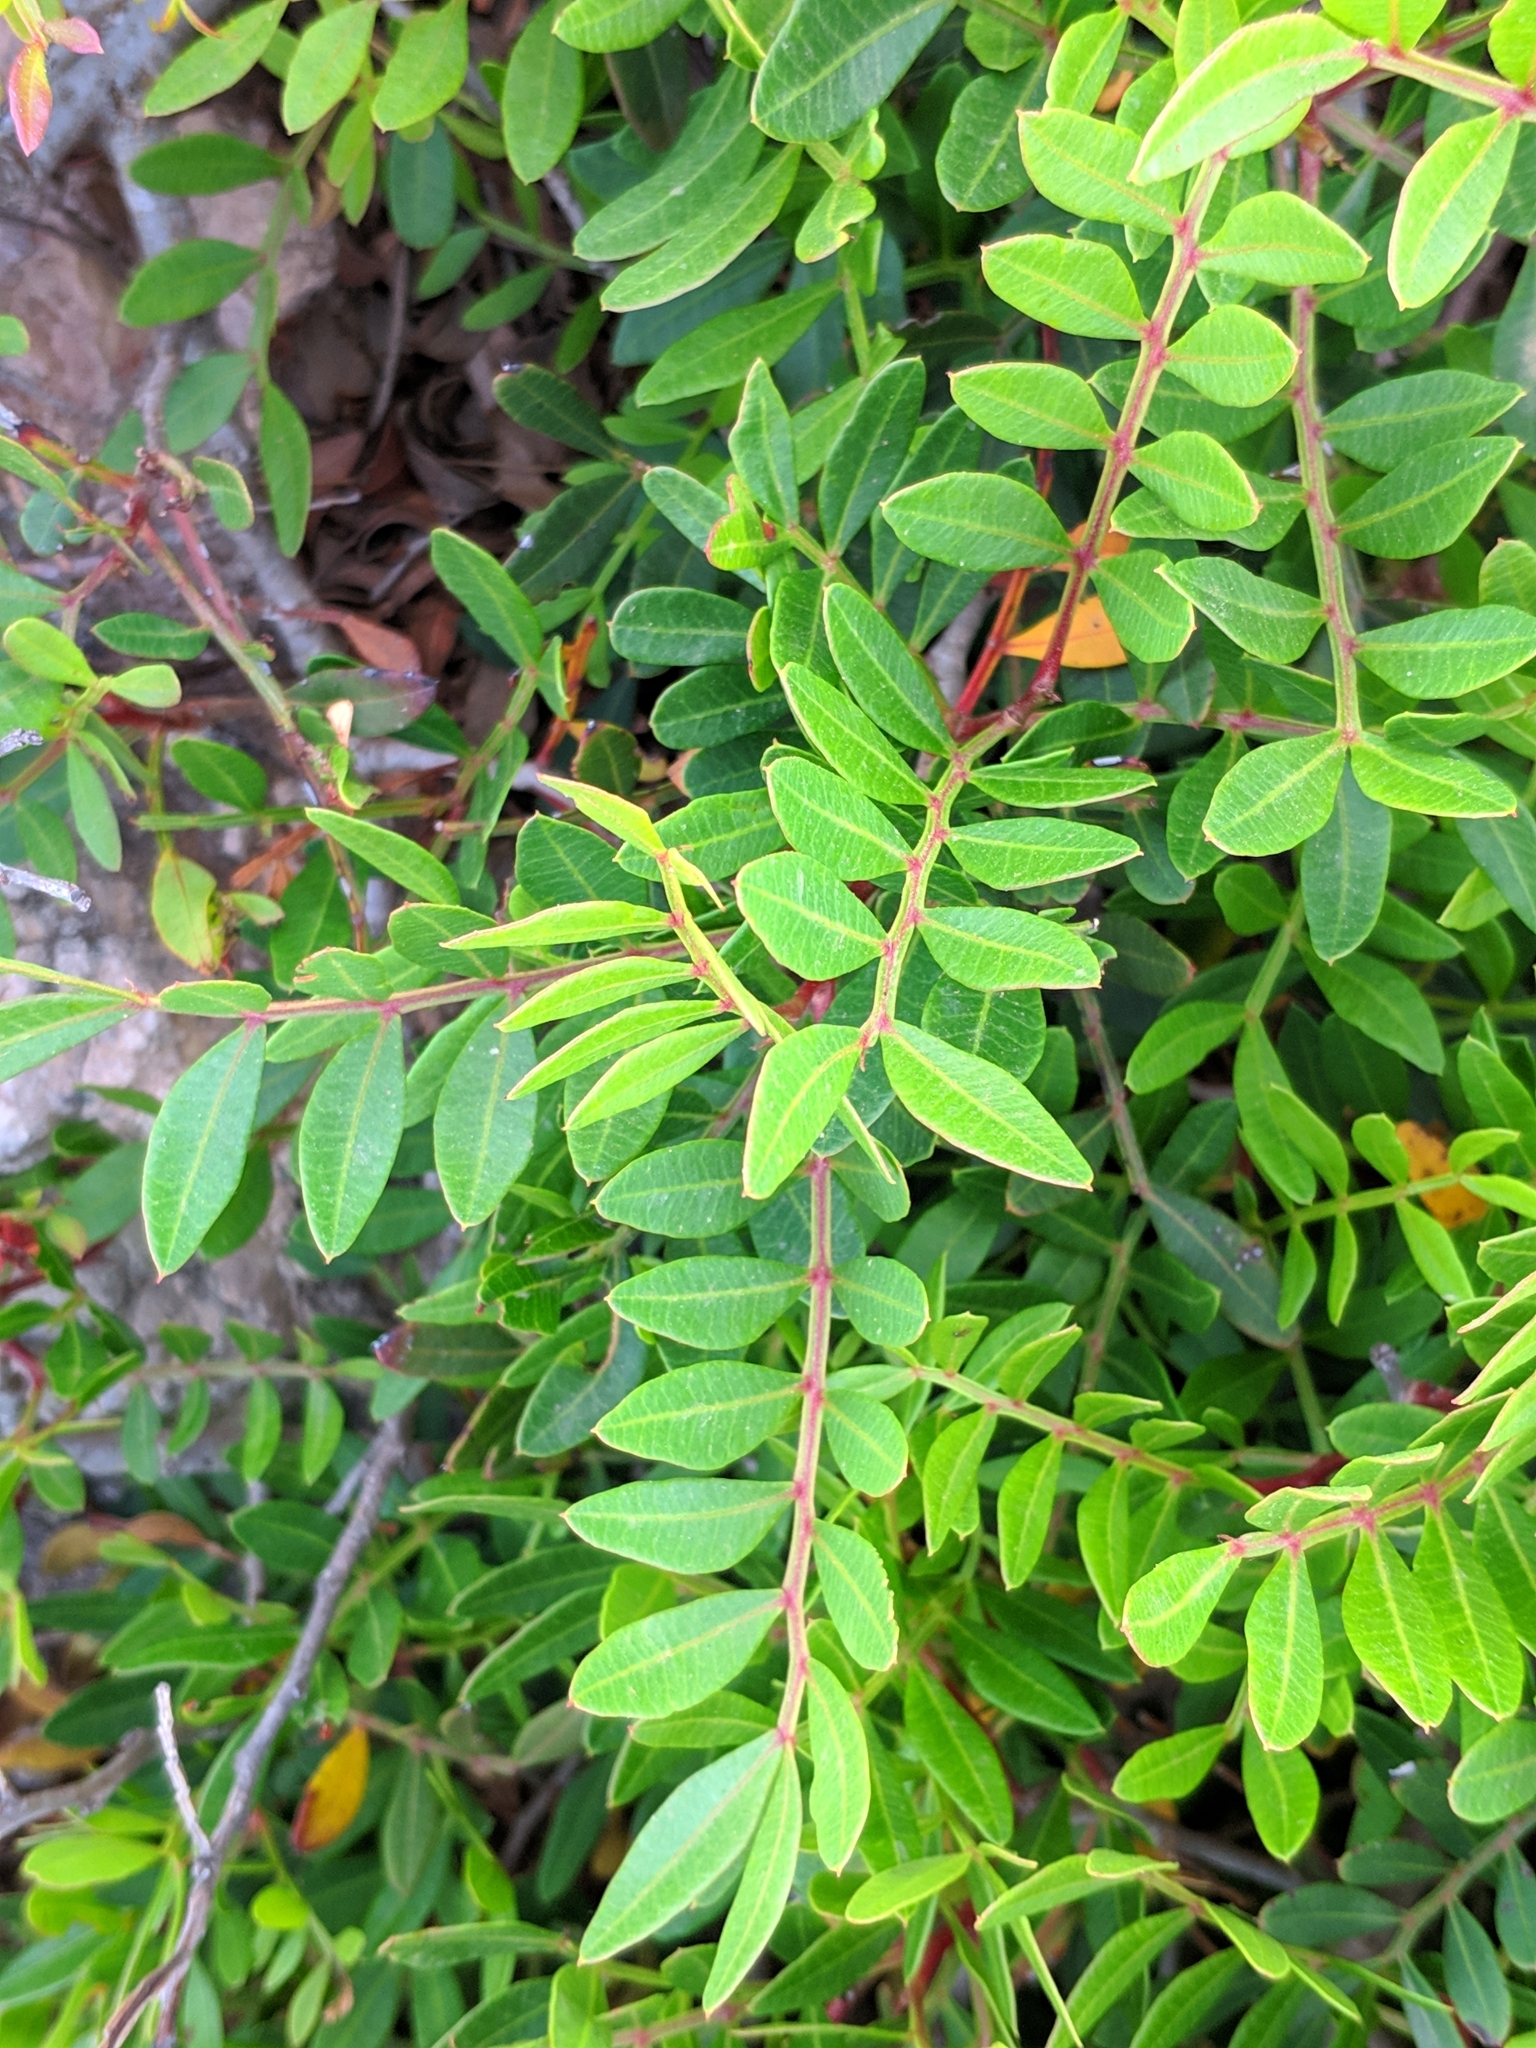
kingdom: Plantae
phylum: Tracheophyta
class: Magnoliopsida
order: Sapindales
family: Anacardiaceae
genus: Pistacia
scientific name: Pistacia lentiscus
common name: Lentisk
